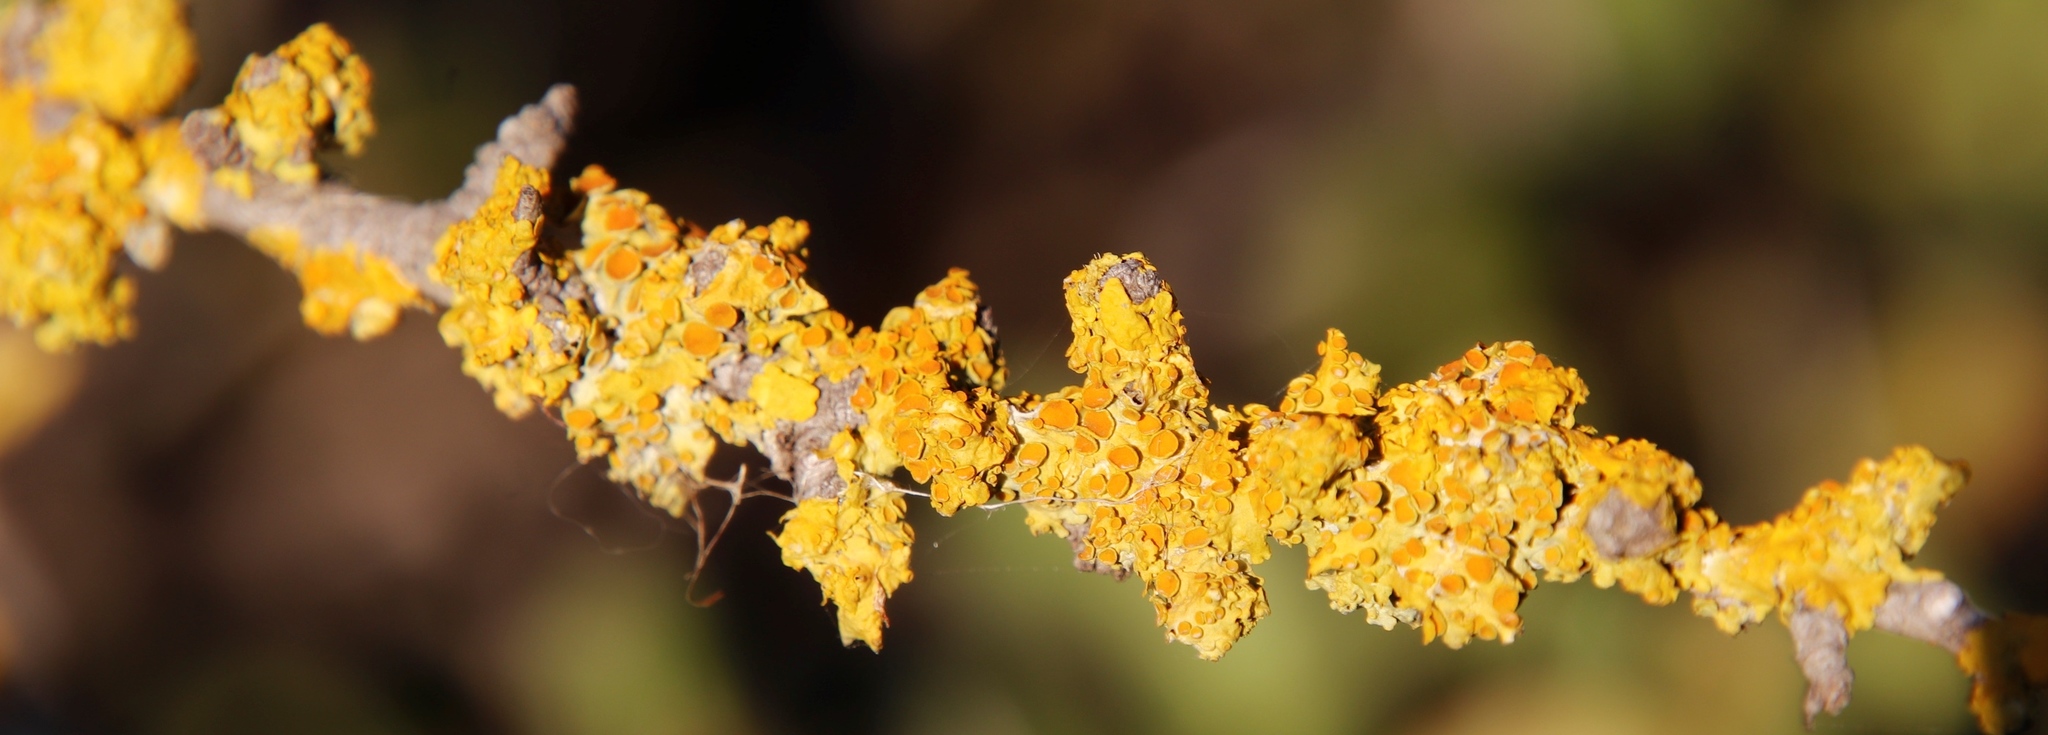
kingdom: Fungi
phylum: Ascomycota
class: Lecanoromycetes
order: Teloschistales
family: Teloschistaceae
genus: Xanthoria
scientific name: Xanthoria parietina
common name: Common orange lichen
